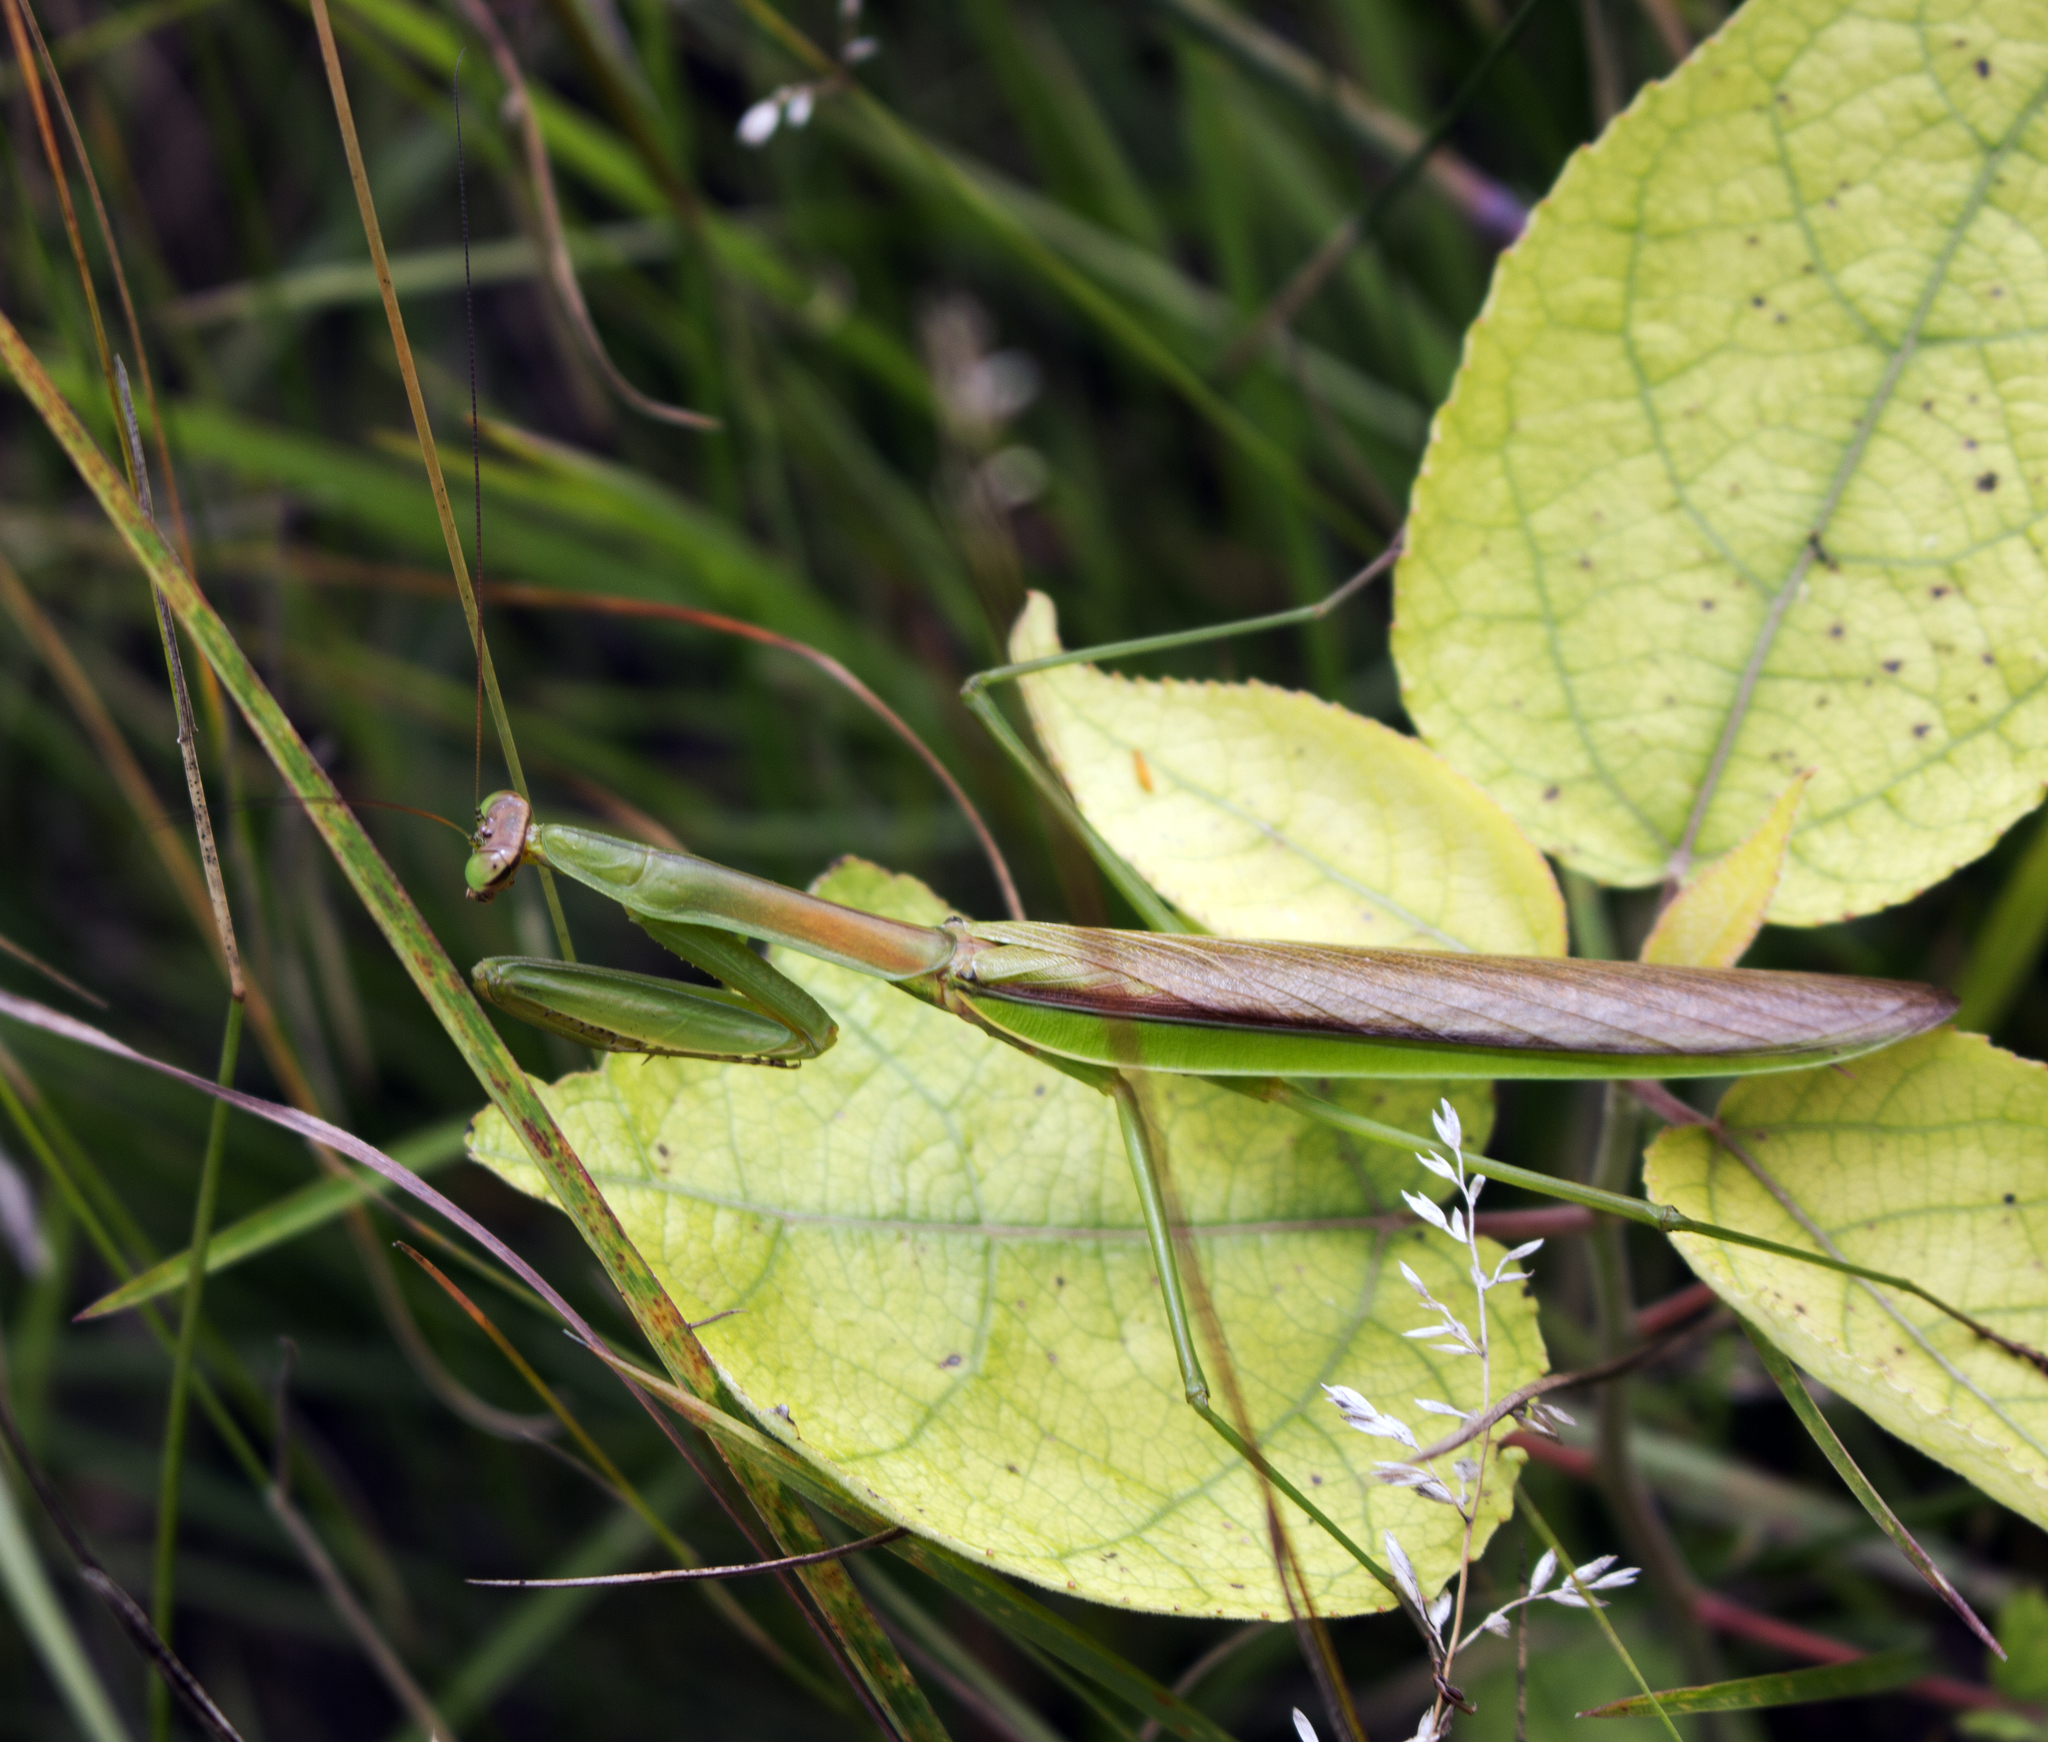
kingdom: Animalia
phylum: Arthropoda
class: Insecta
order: Mantodea
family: Mantidae
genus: Tenodera
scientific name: Tenodera sinensis
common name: Chinese mantis
